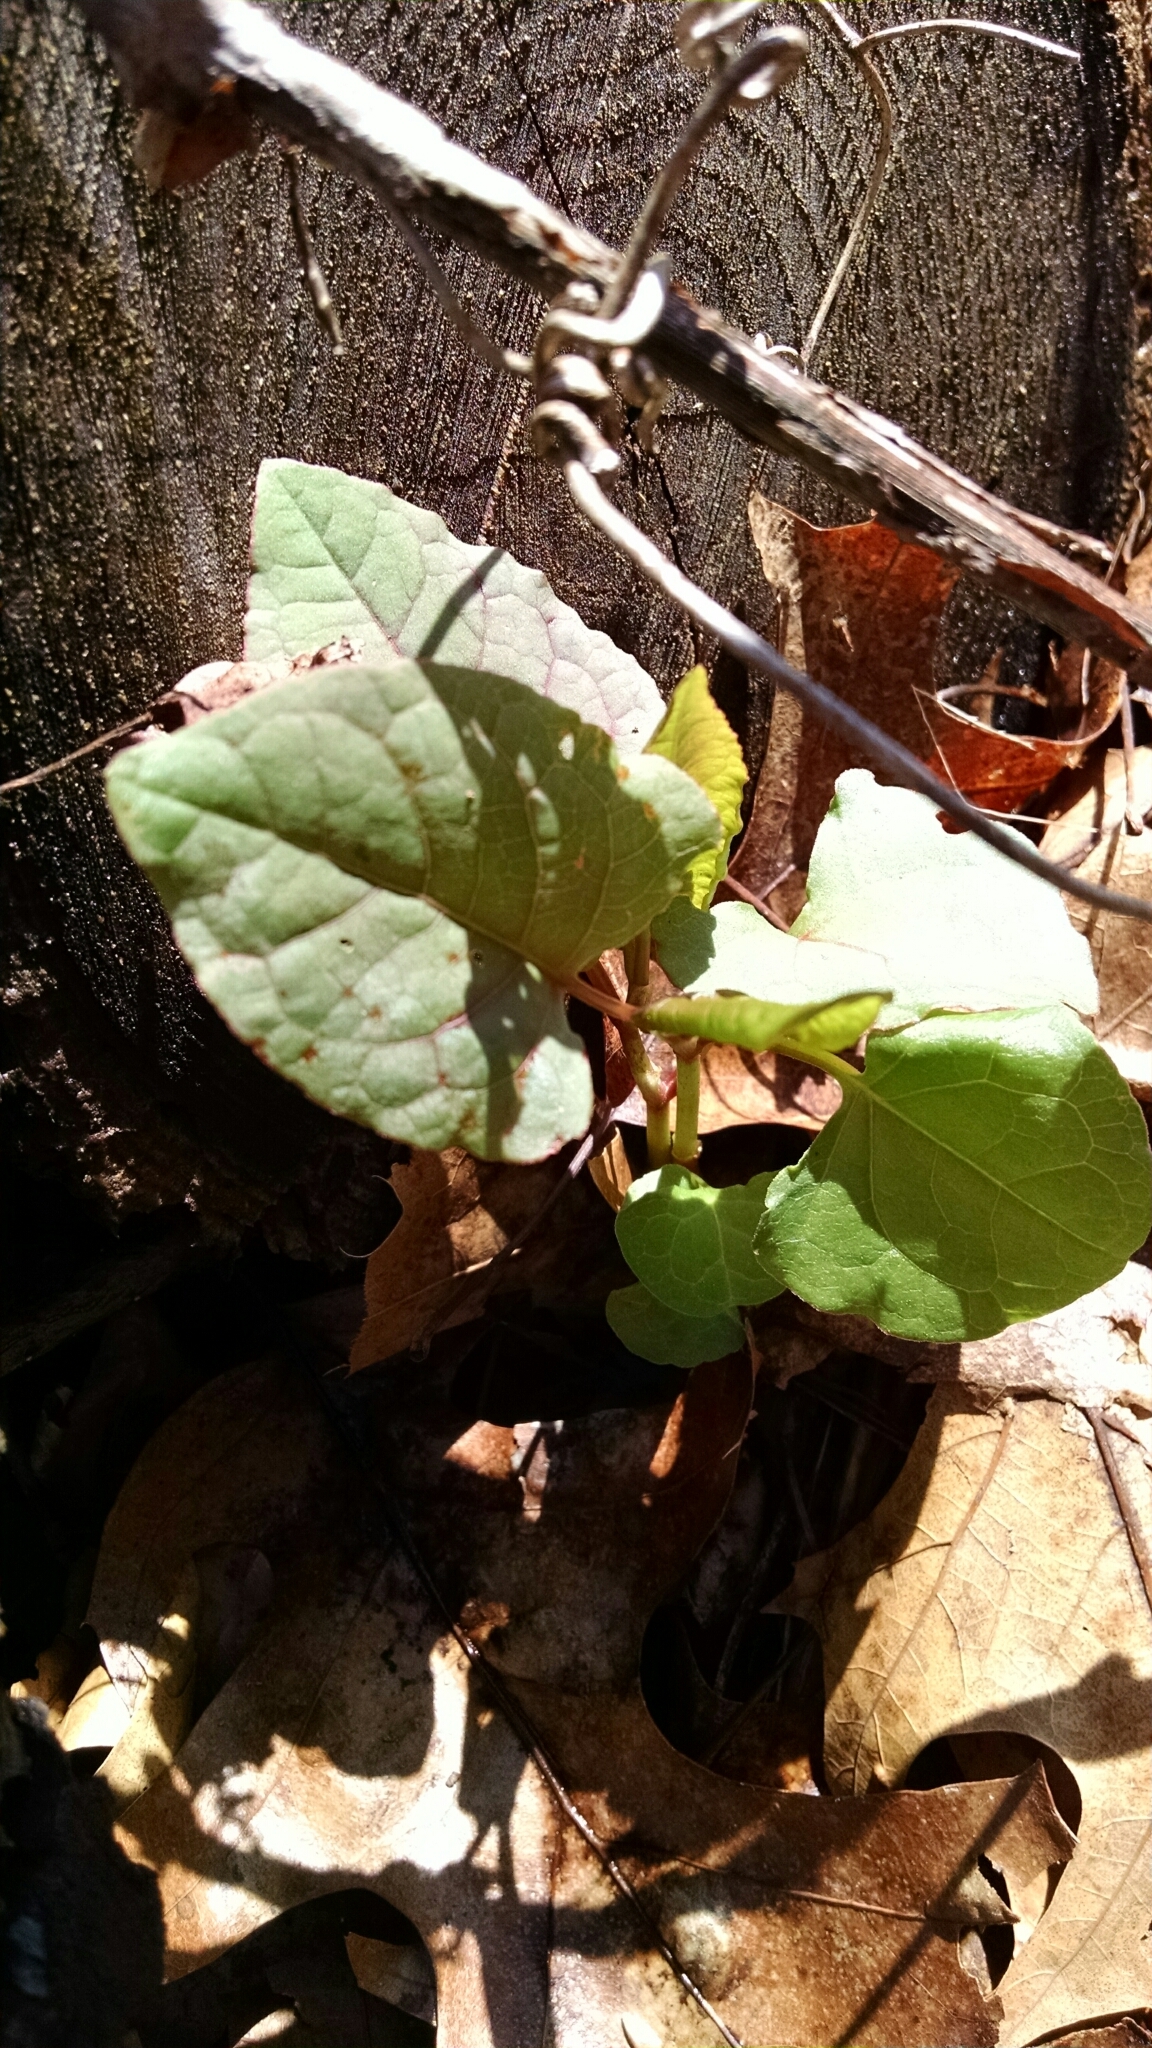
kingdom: Plantae
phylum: Tracheophyta
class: Magnoliopsida
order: Caryophyllales
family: Polygonaceae
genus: Reynoutria
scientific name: Reynoutria japonica
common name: Japanese knotweed
